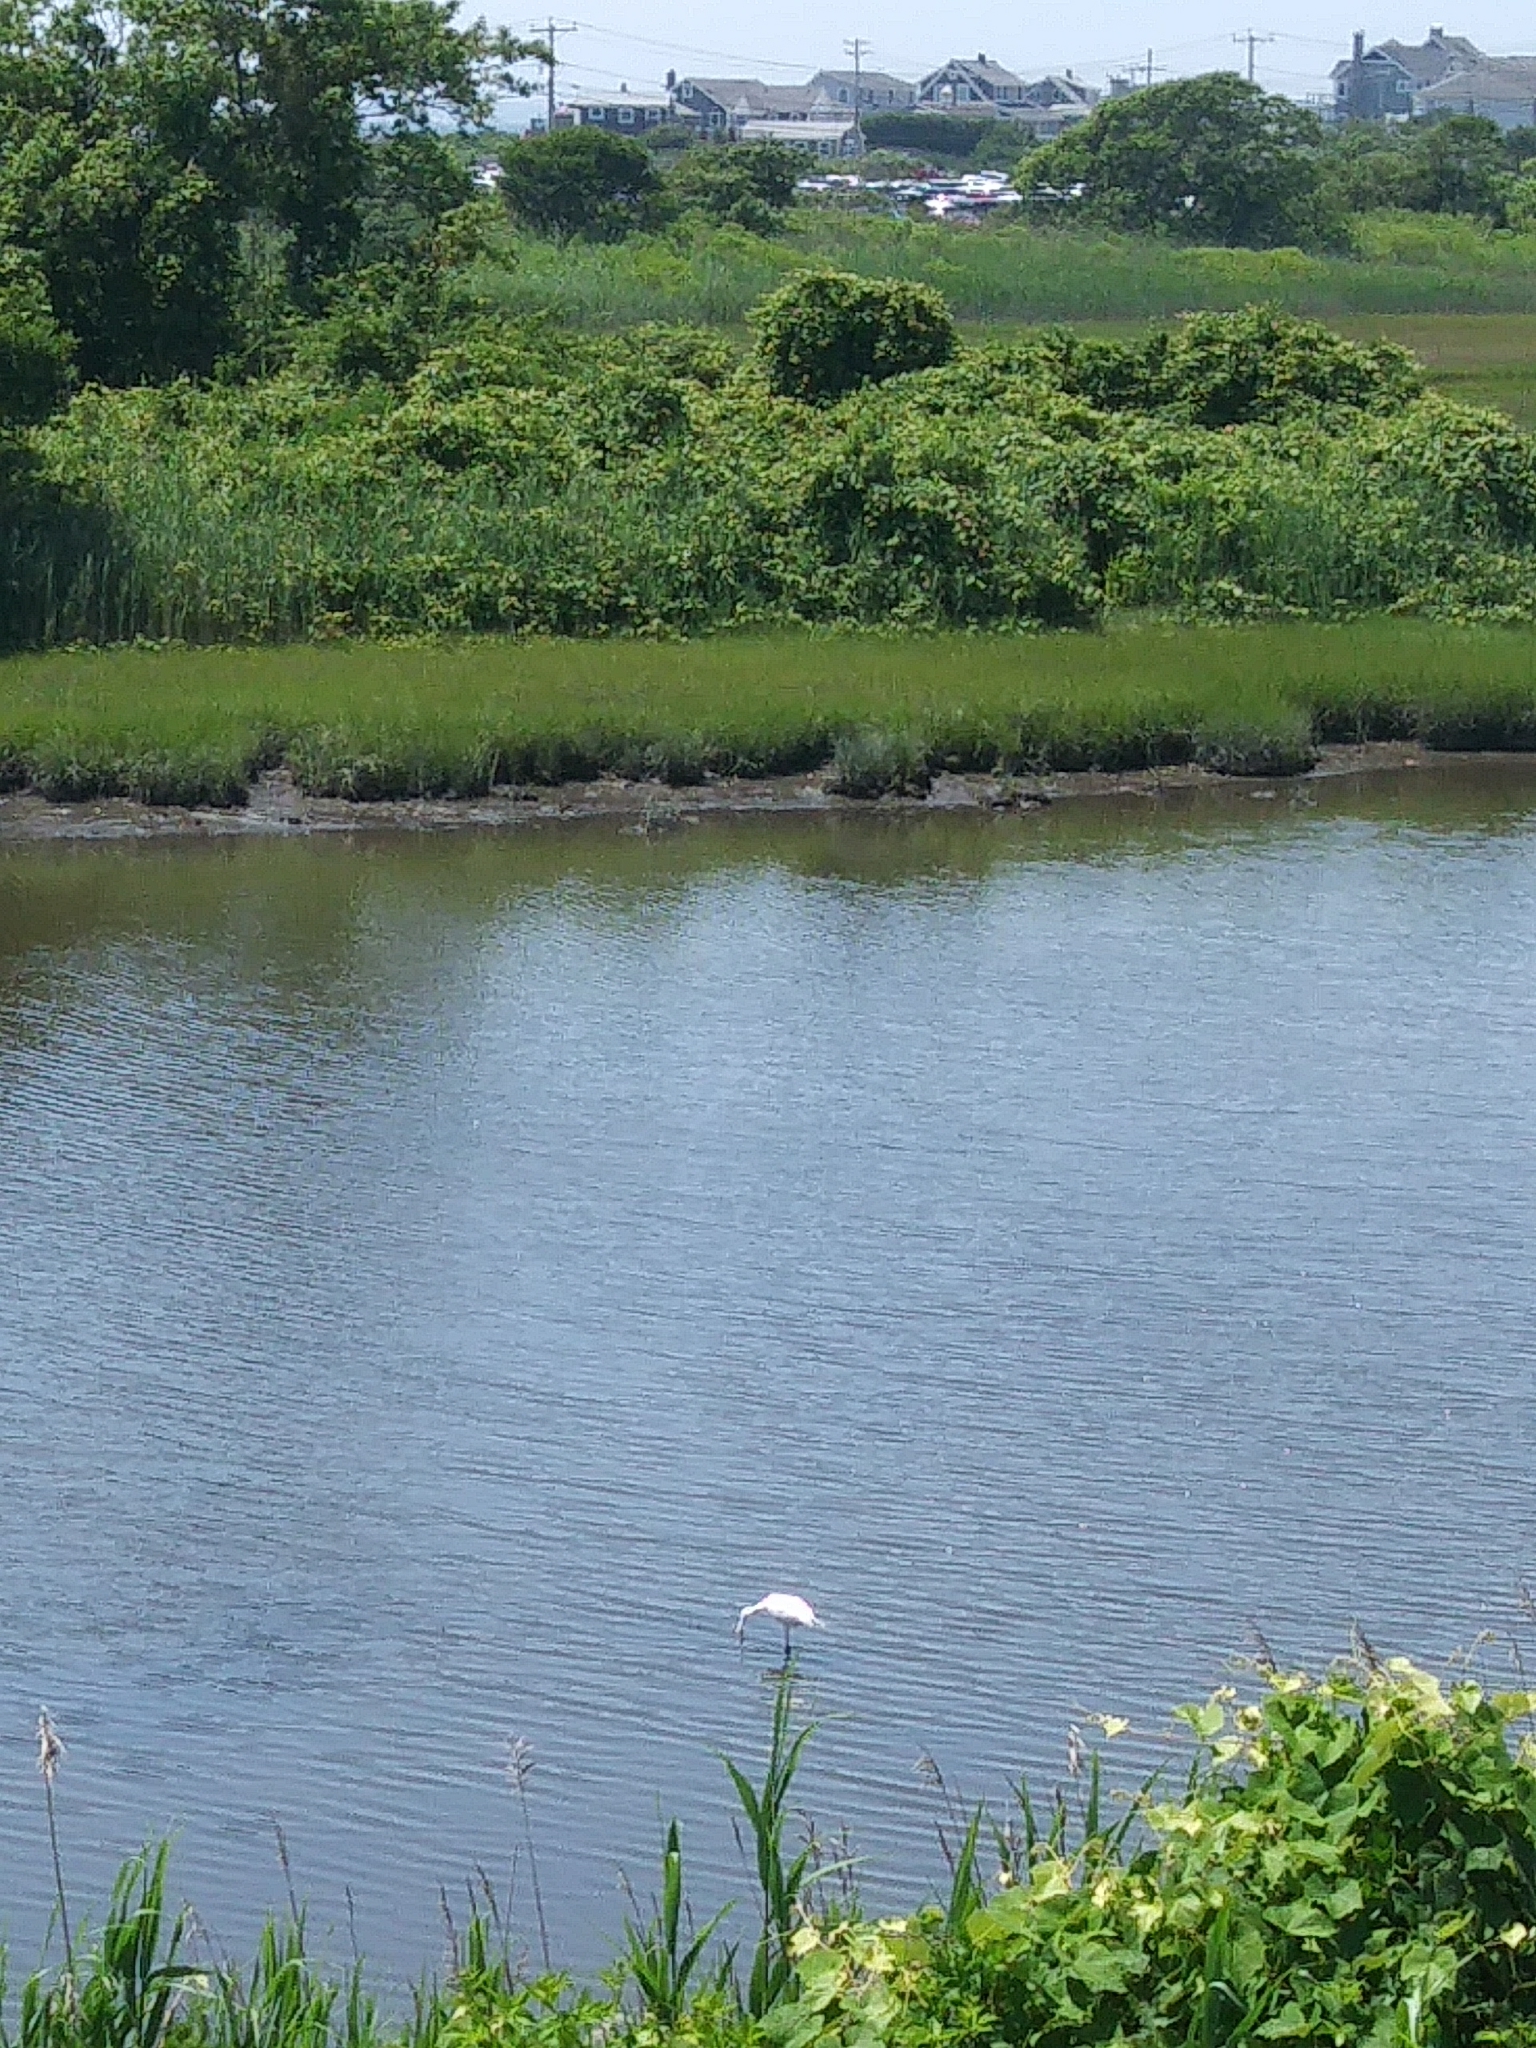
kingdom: Animalia
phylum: Chordata
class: Aves
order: Pelecaniformes
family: Ardeidae
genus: Ardea
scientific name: Ardea alba
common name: Great egret
